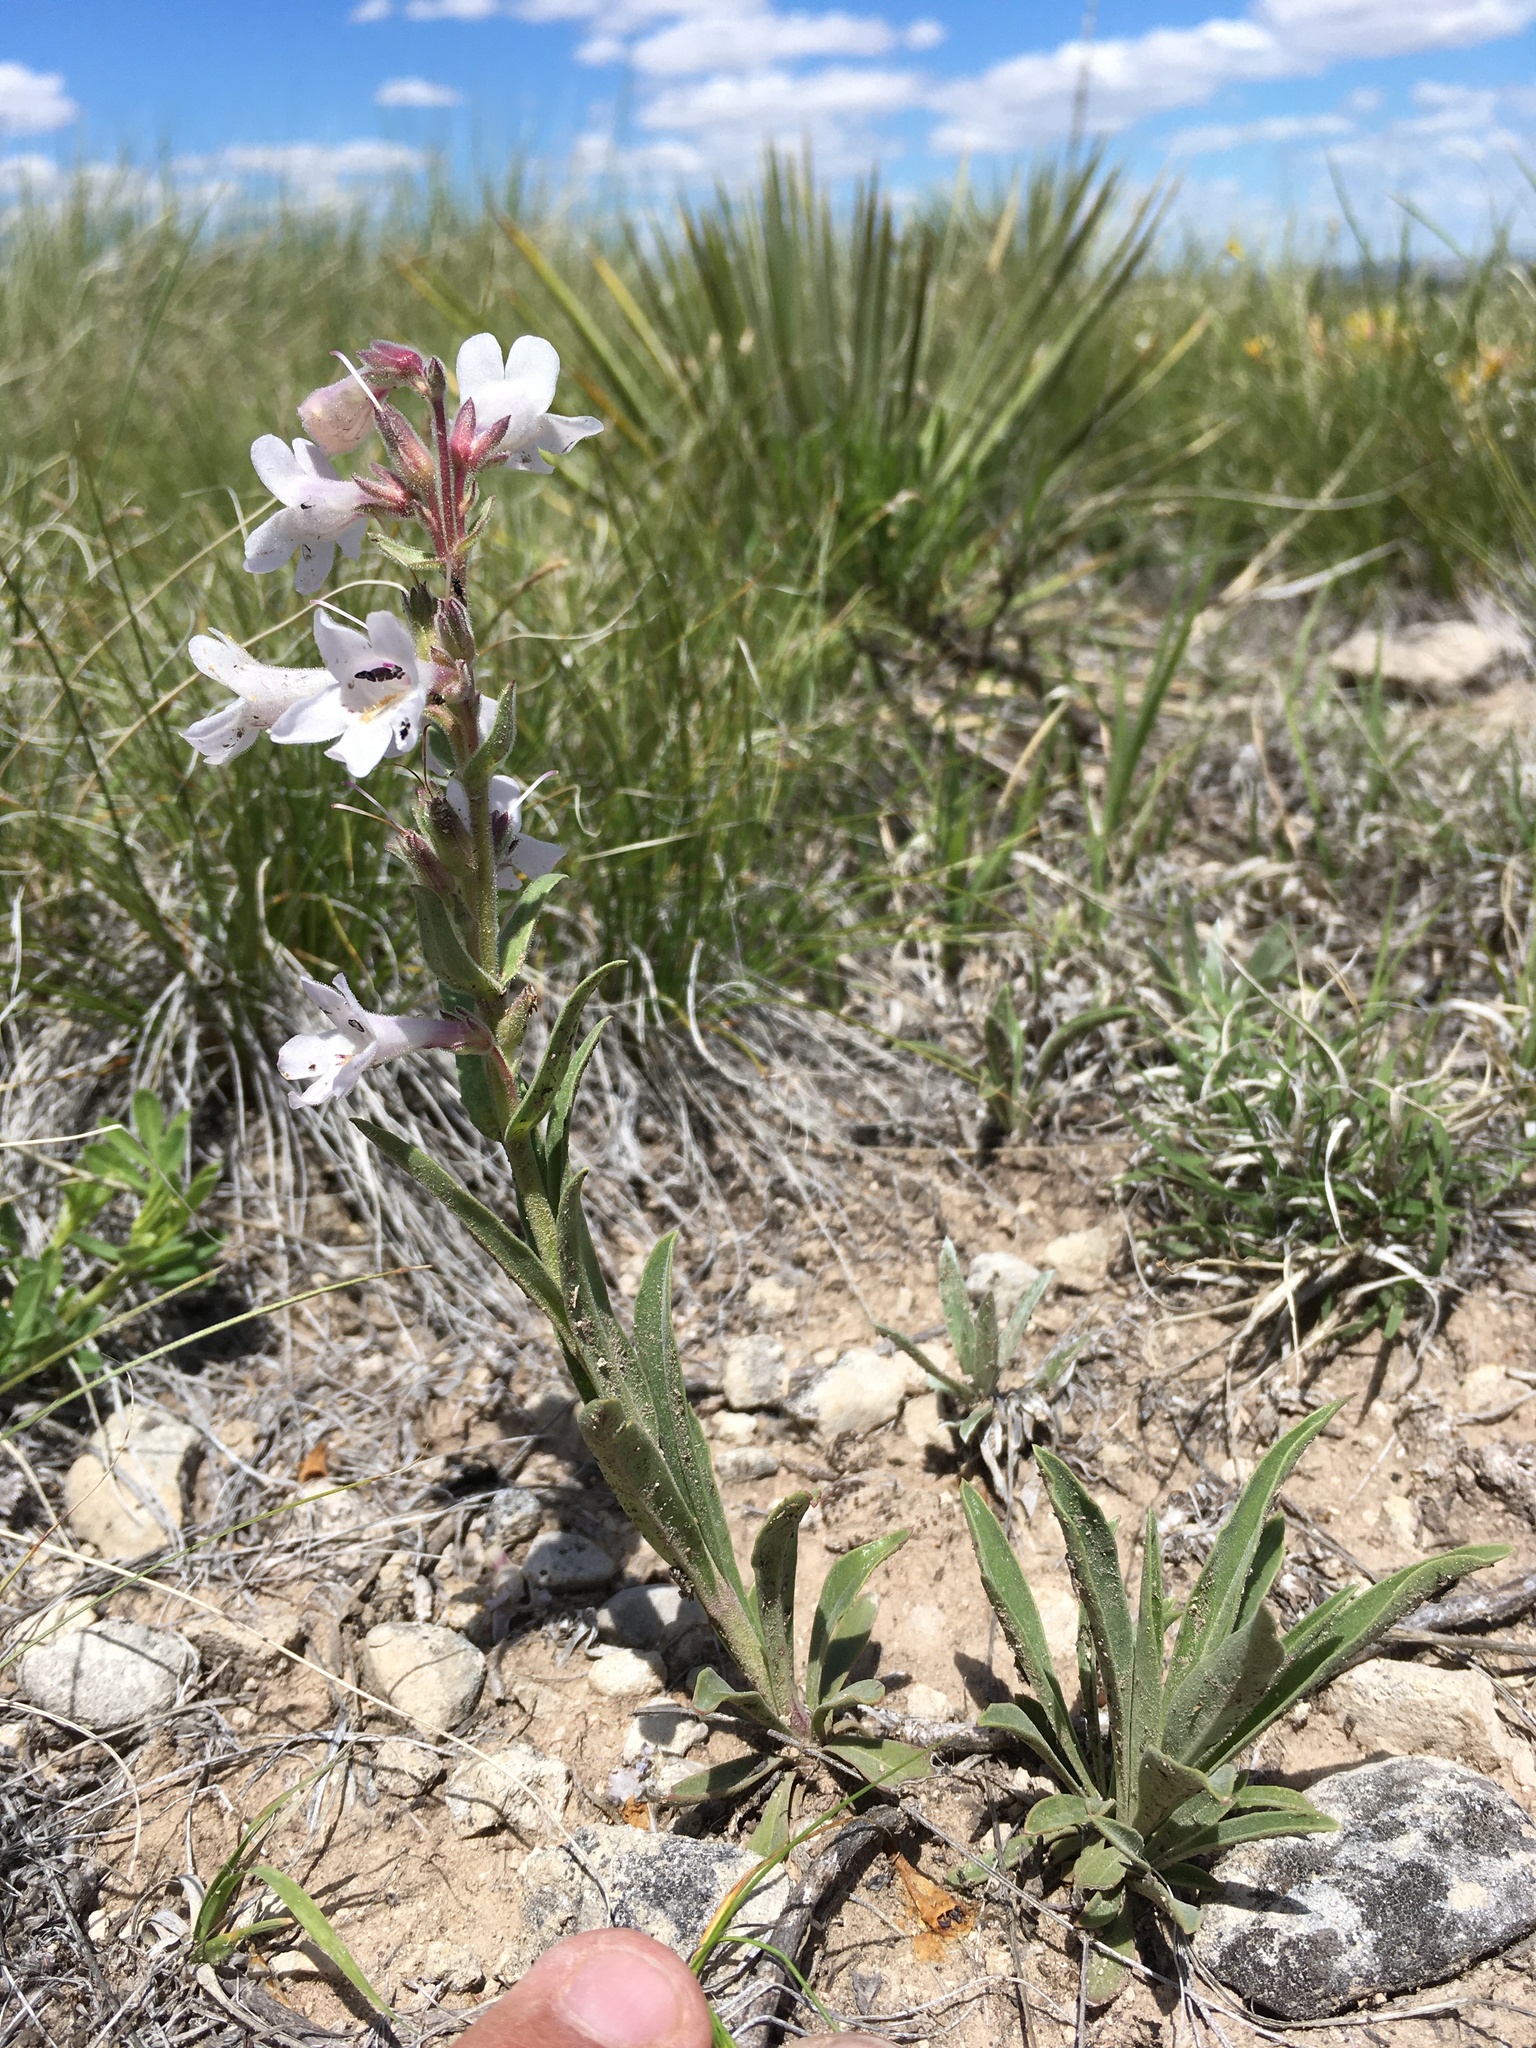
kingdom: Plantae
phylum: Tracheophyta
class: Magnoliopsida
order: Lamiales
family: Plantaginaceae
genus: Penstemon
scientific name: Penstemon albidus
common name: White beardtongue
